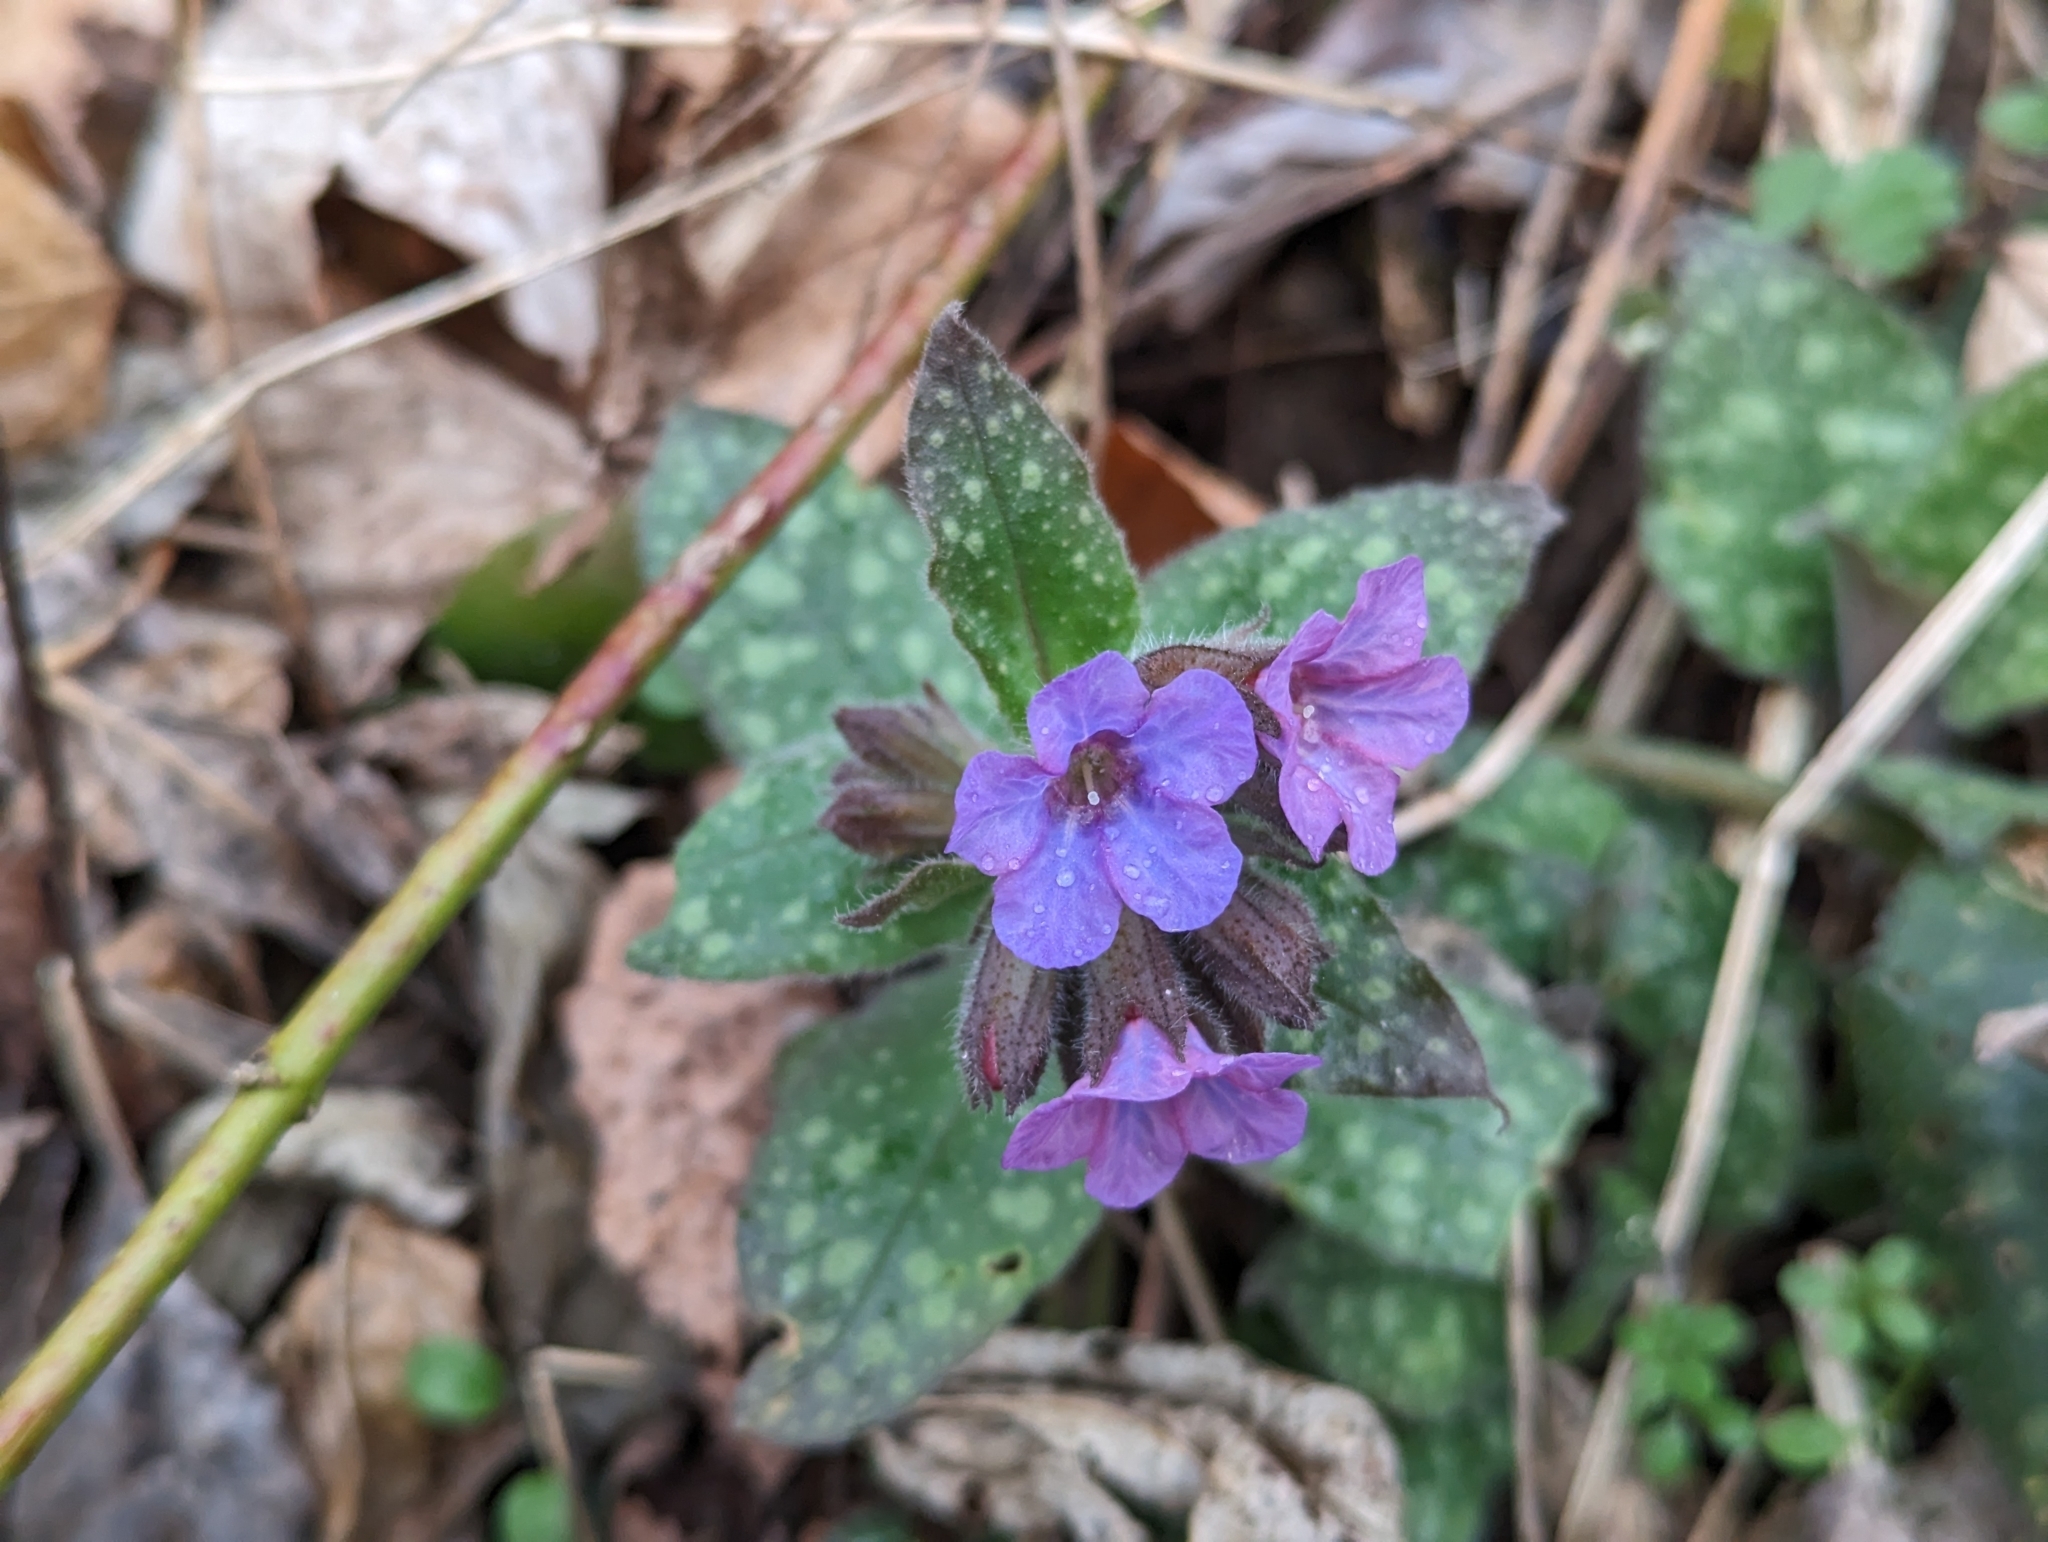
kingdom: Plantae
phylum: Tracheophyta
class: Magnoliopsida
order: Boraginales
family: Boraginaceae
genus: Pulmonaria
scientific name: Pulmonaria officinalis
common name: Lungwort
